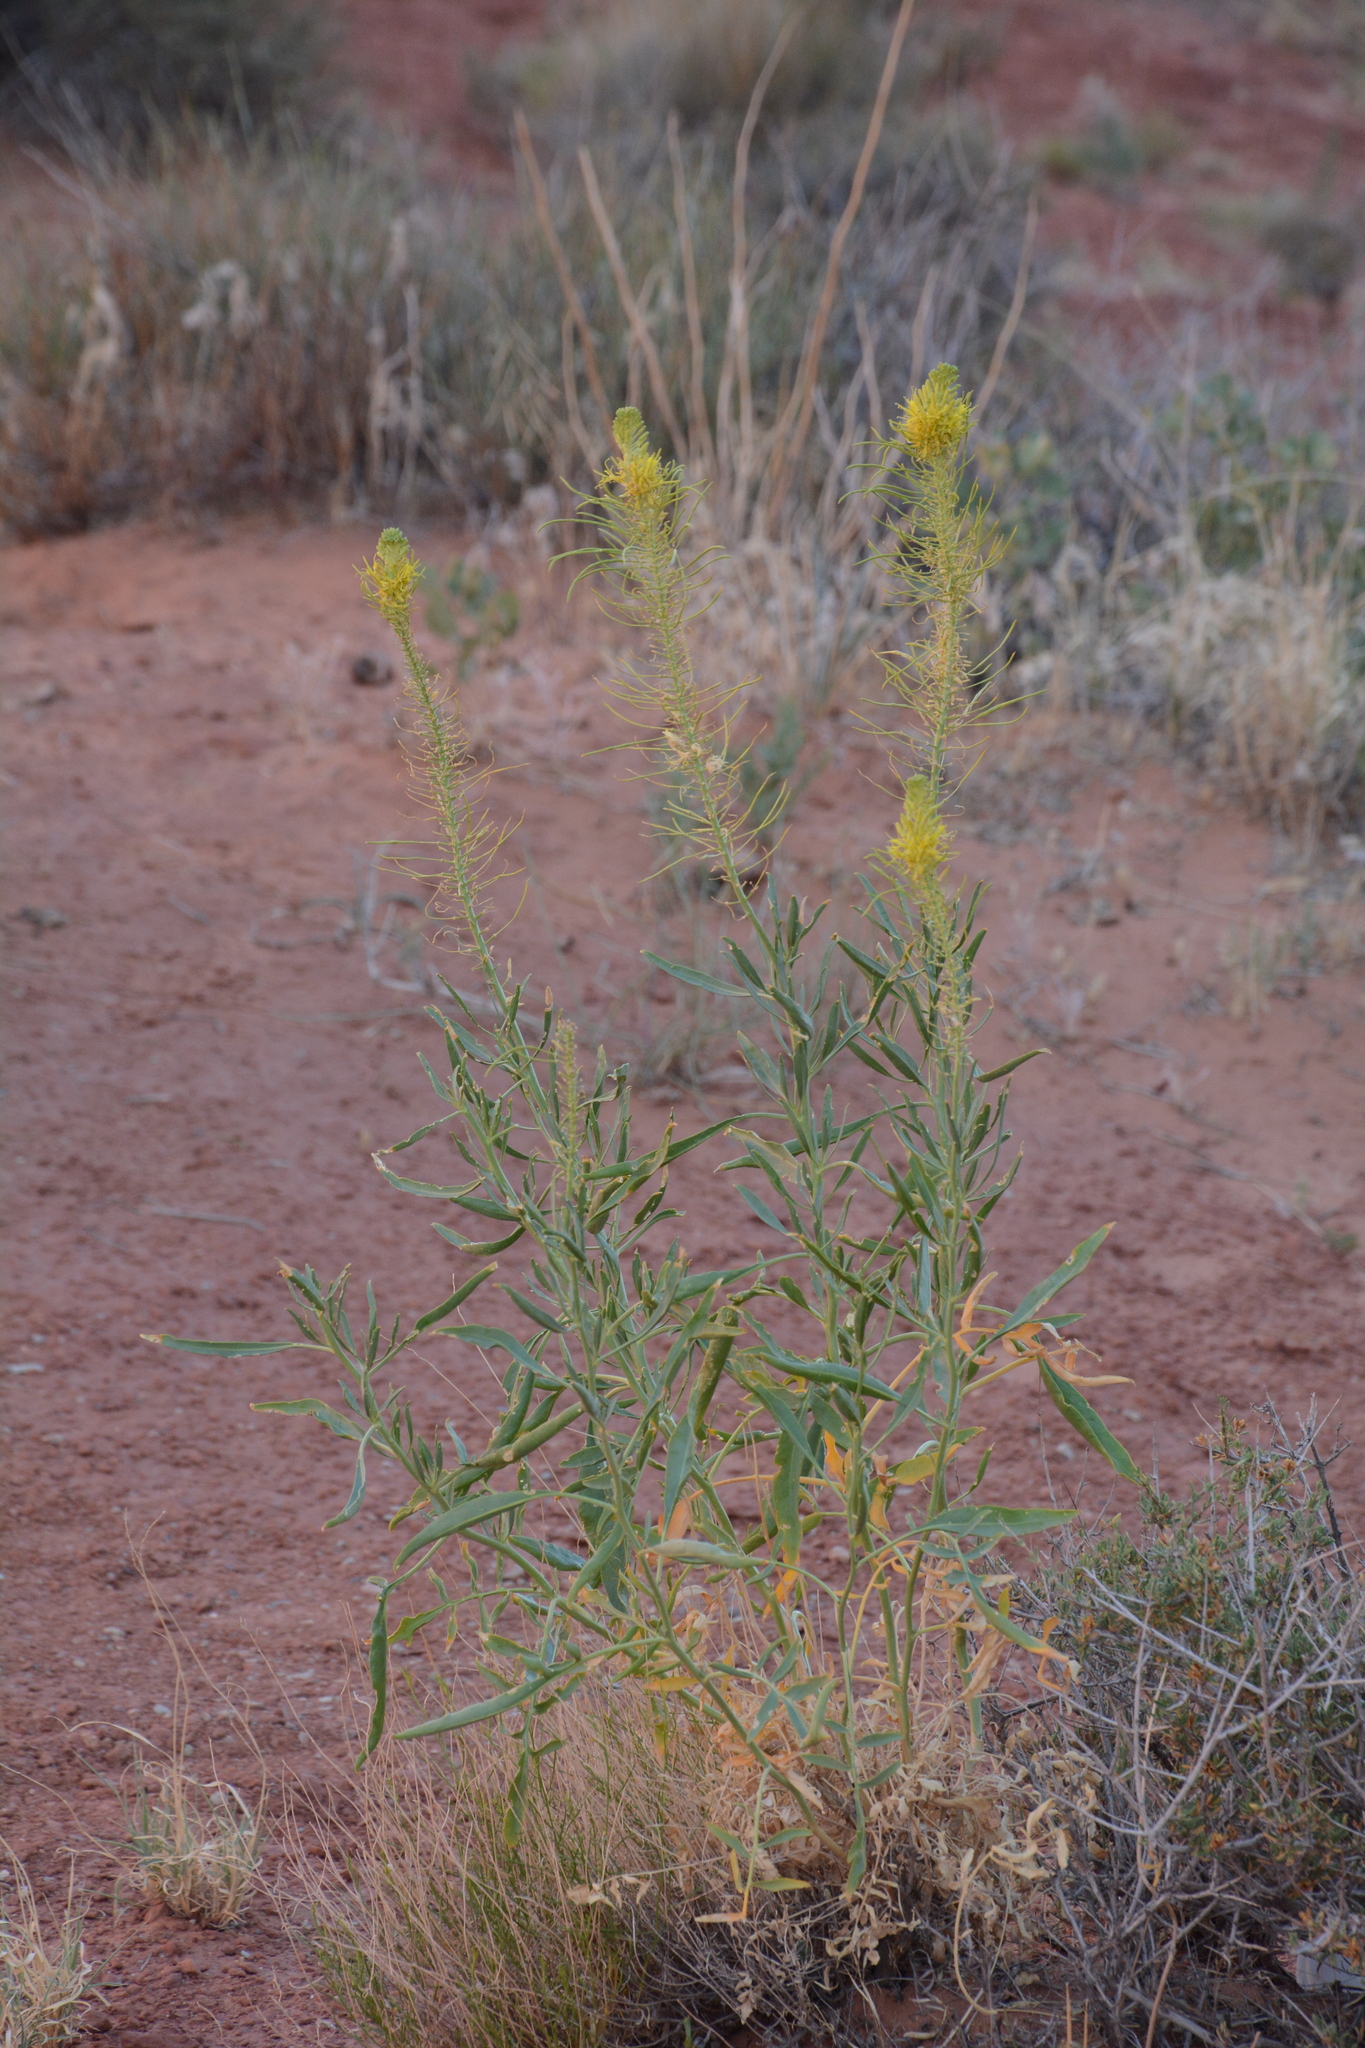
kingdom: Plantae
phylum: Tracheophyta
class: Magnoliopsida
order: Brassicales
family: Brassicaceae
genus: Stanleya
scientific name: Stanleya pinnata
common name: Prince's-plume
